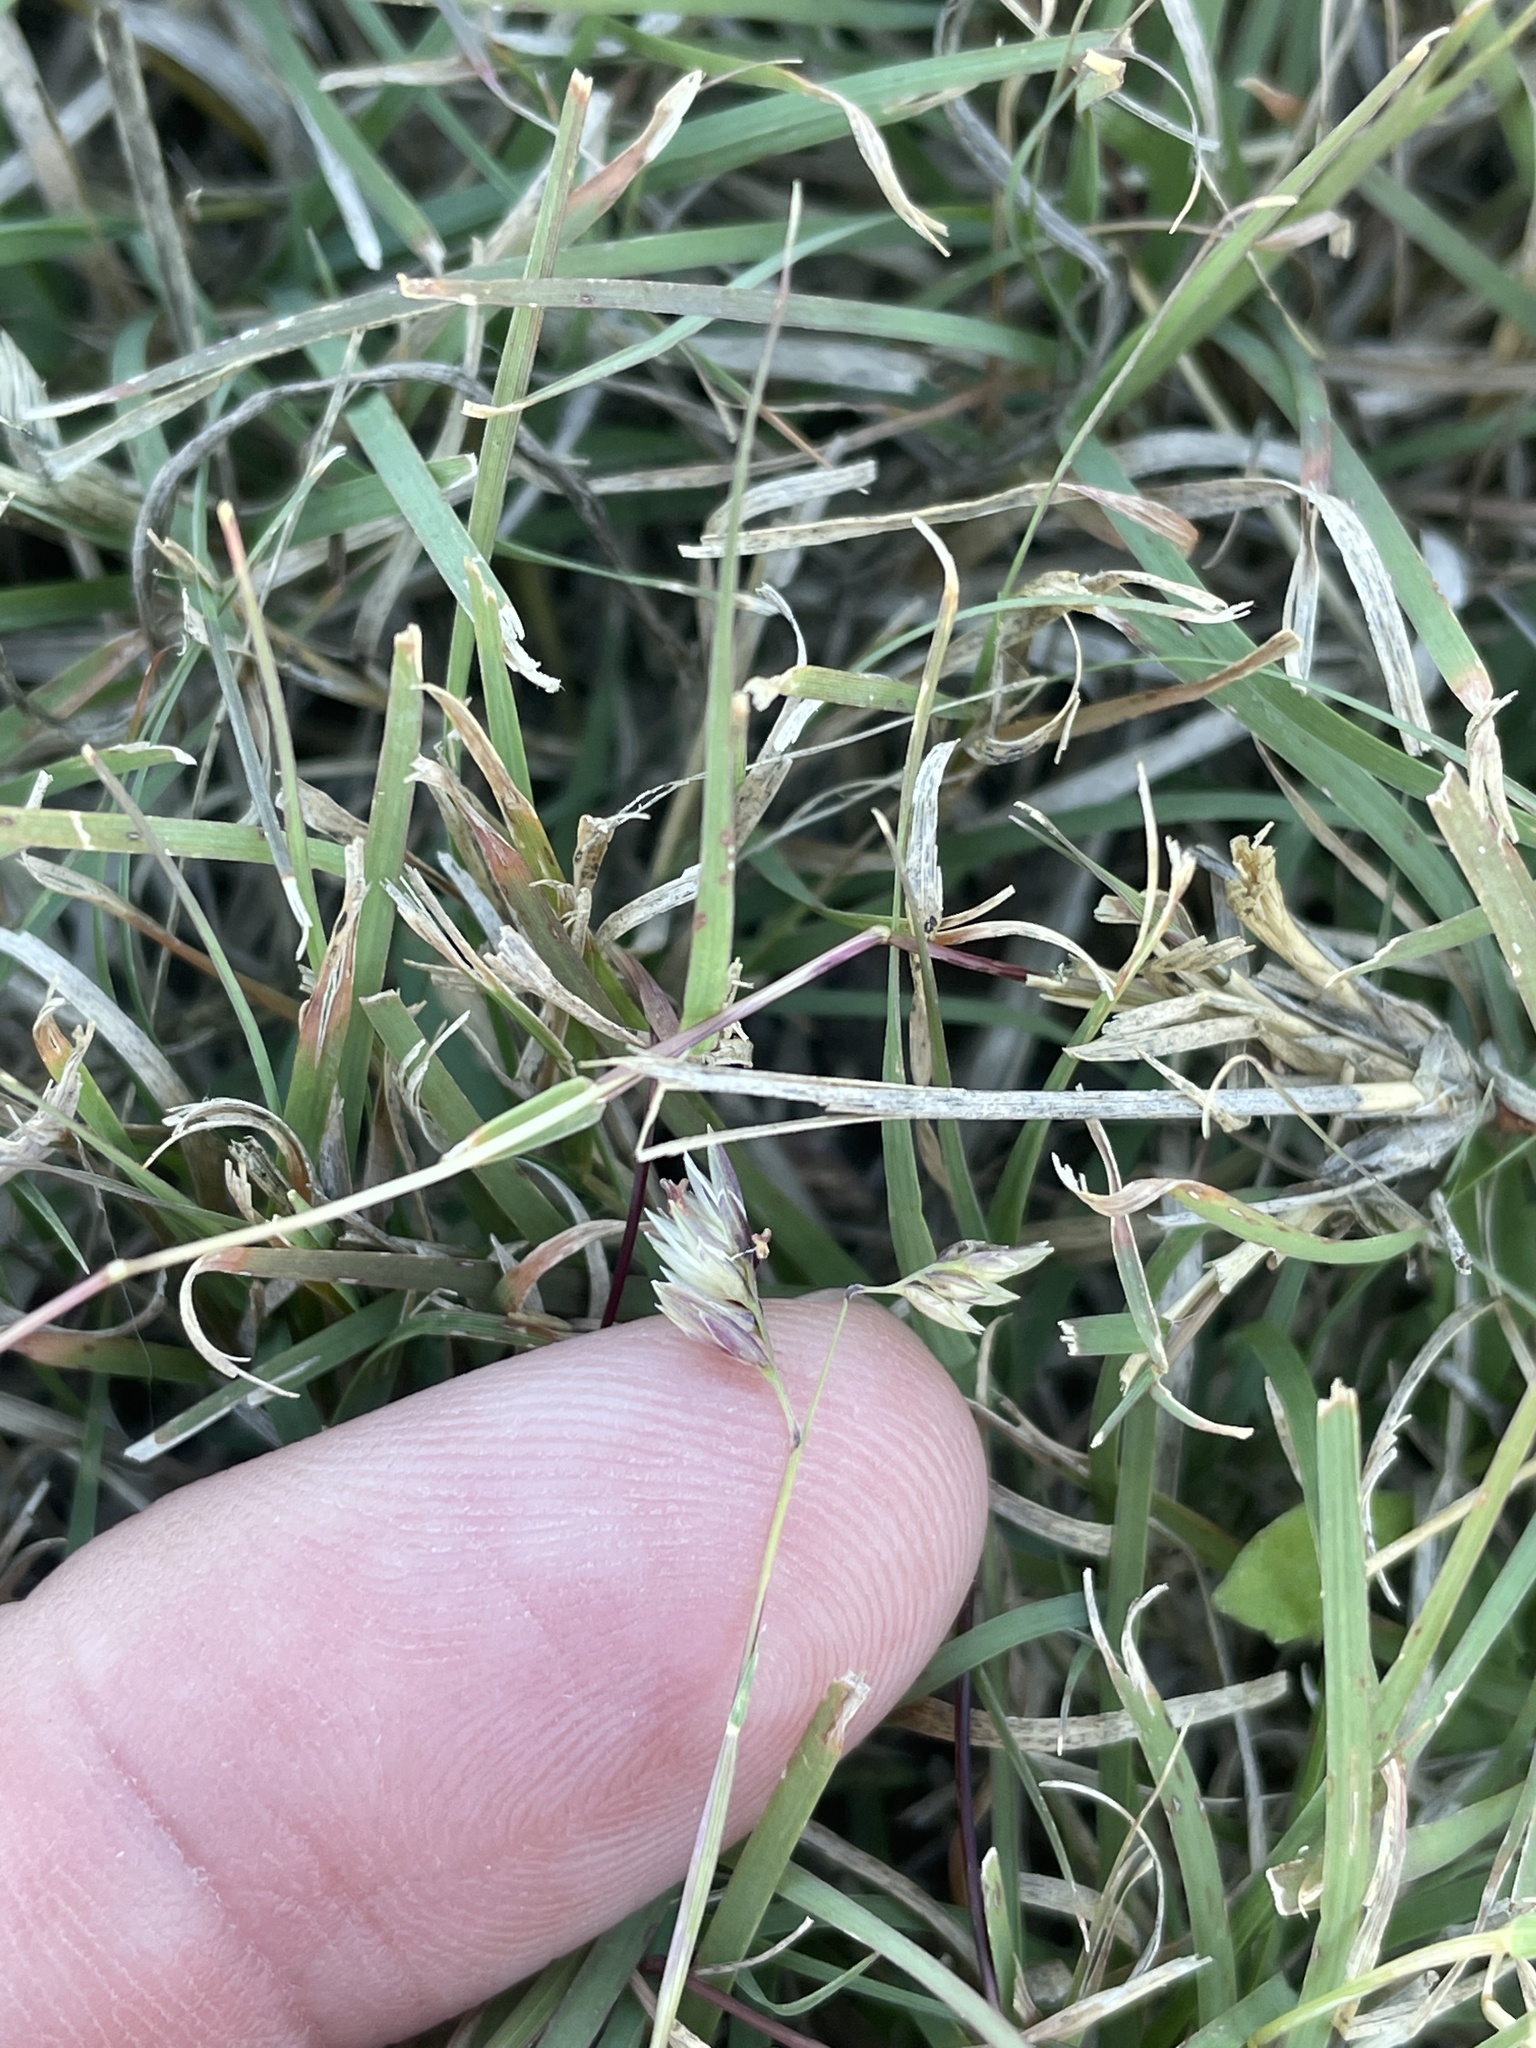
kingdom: Plantae
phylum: Tracheophyta
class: Liliopsida
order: Poales
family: Poaceae
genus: Bouteloua
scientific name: Bouteloua dactyloides
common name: Buffalo grass
